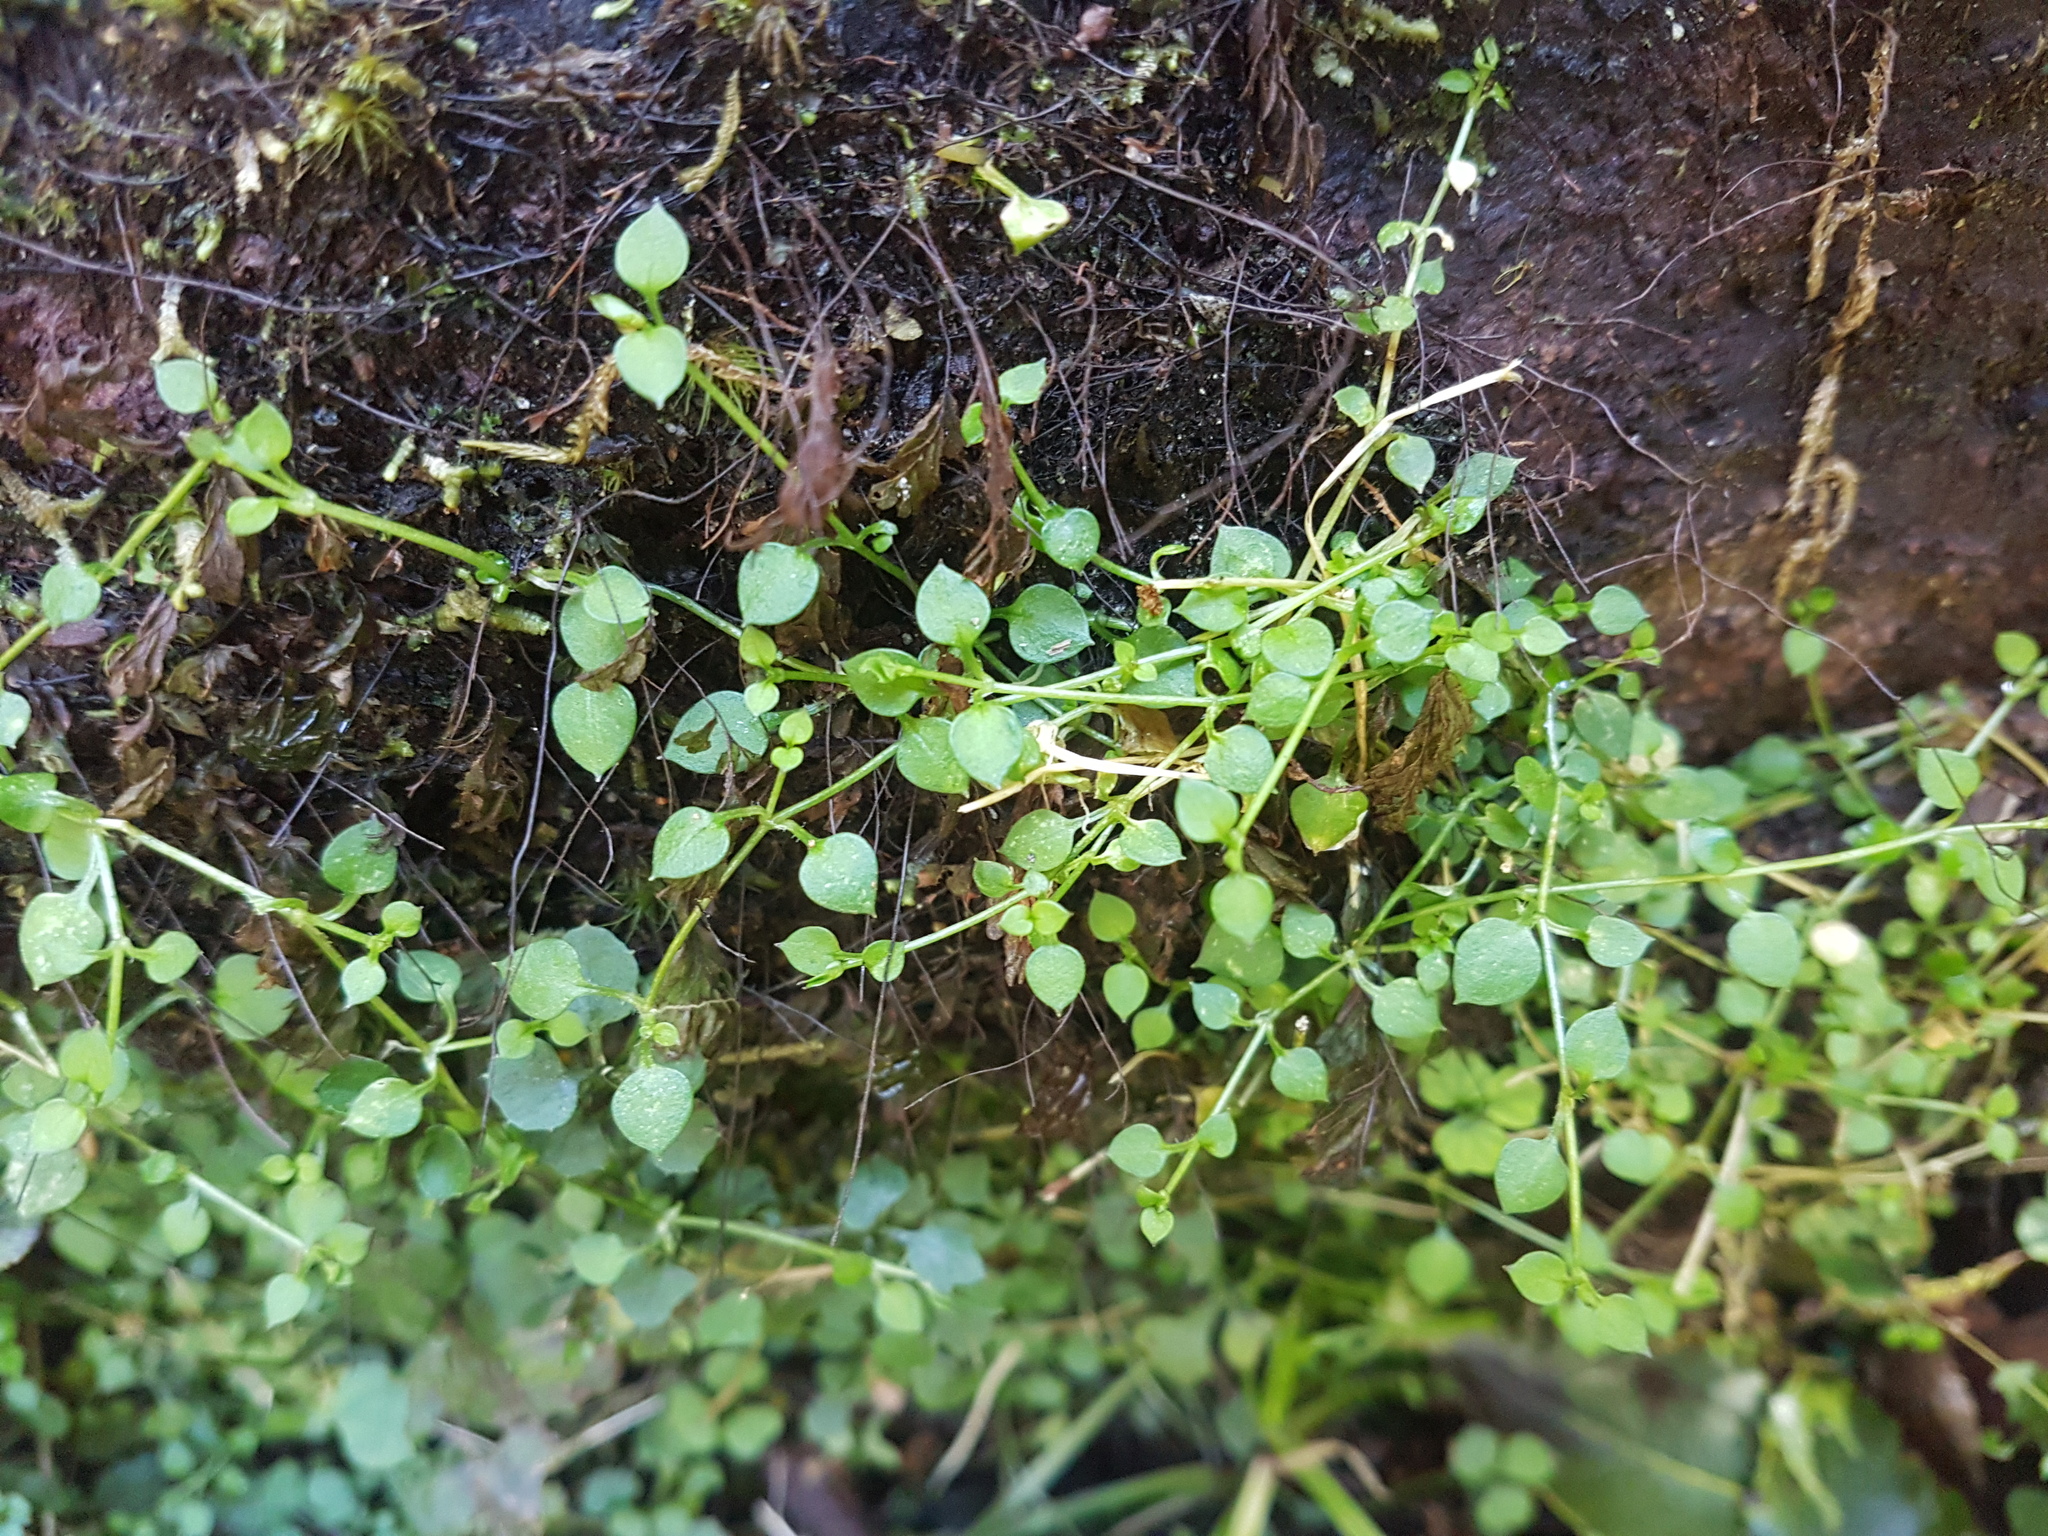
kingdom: Plantae
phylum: Tracheophyta
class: Magnoliopsida
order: Gentianales
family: Rubiaceae
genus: Nertera
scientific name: Nertera granadensis
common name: Beadplant
